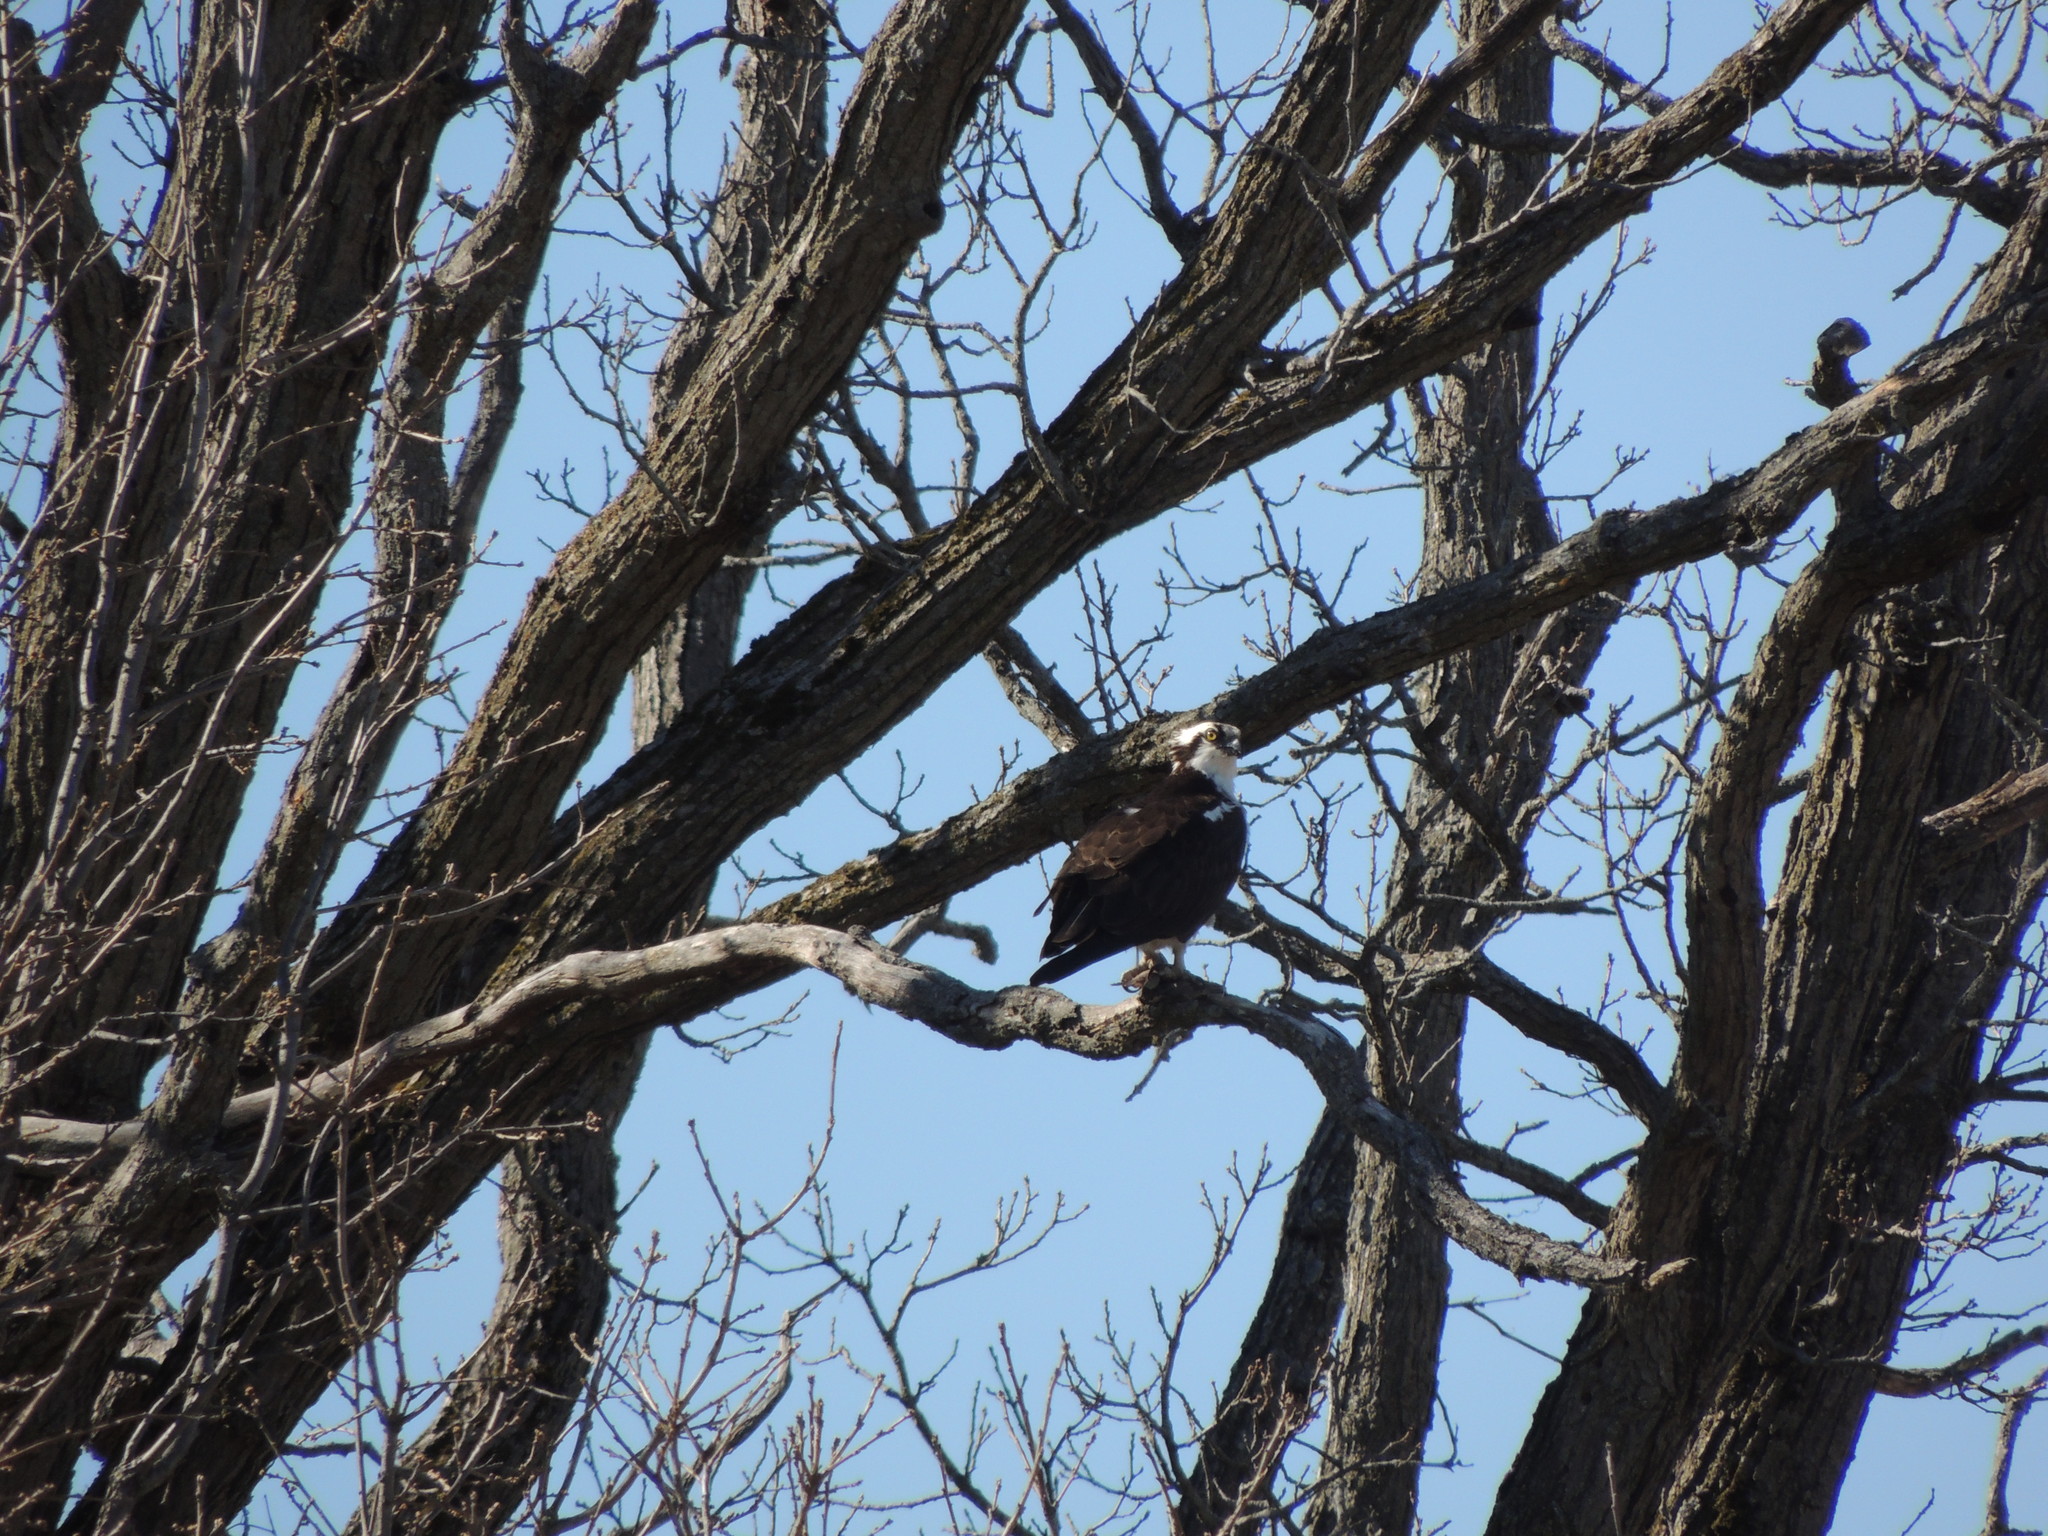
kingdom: Animalia
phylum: Chordata
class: Aves
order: Accipitriformes
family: Pandionidae
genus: Pandion
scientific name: Pandion haliaetus
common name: Osprey
